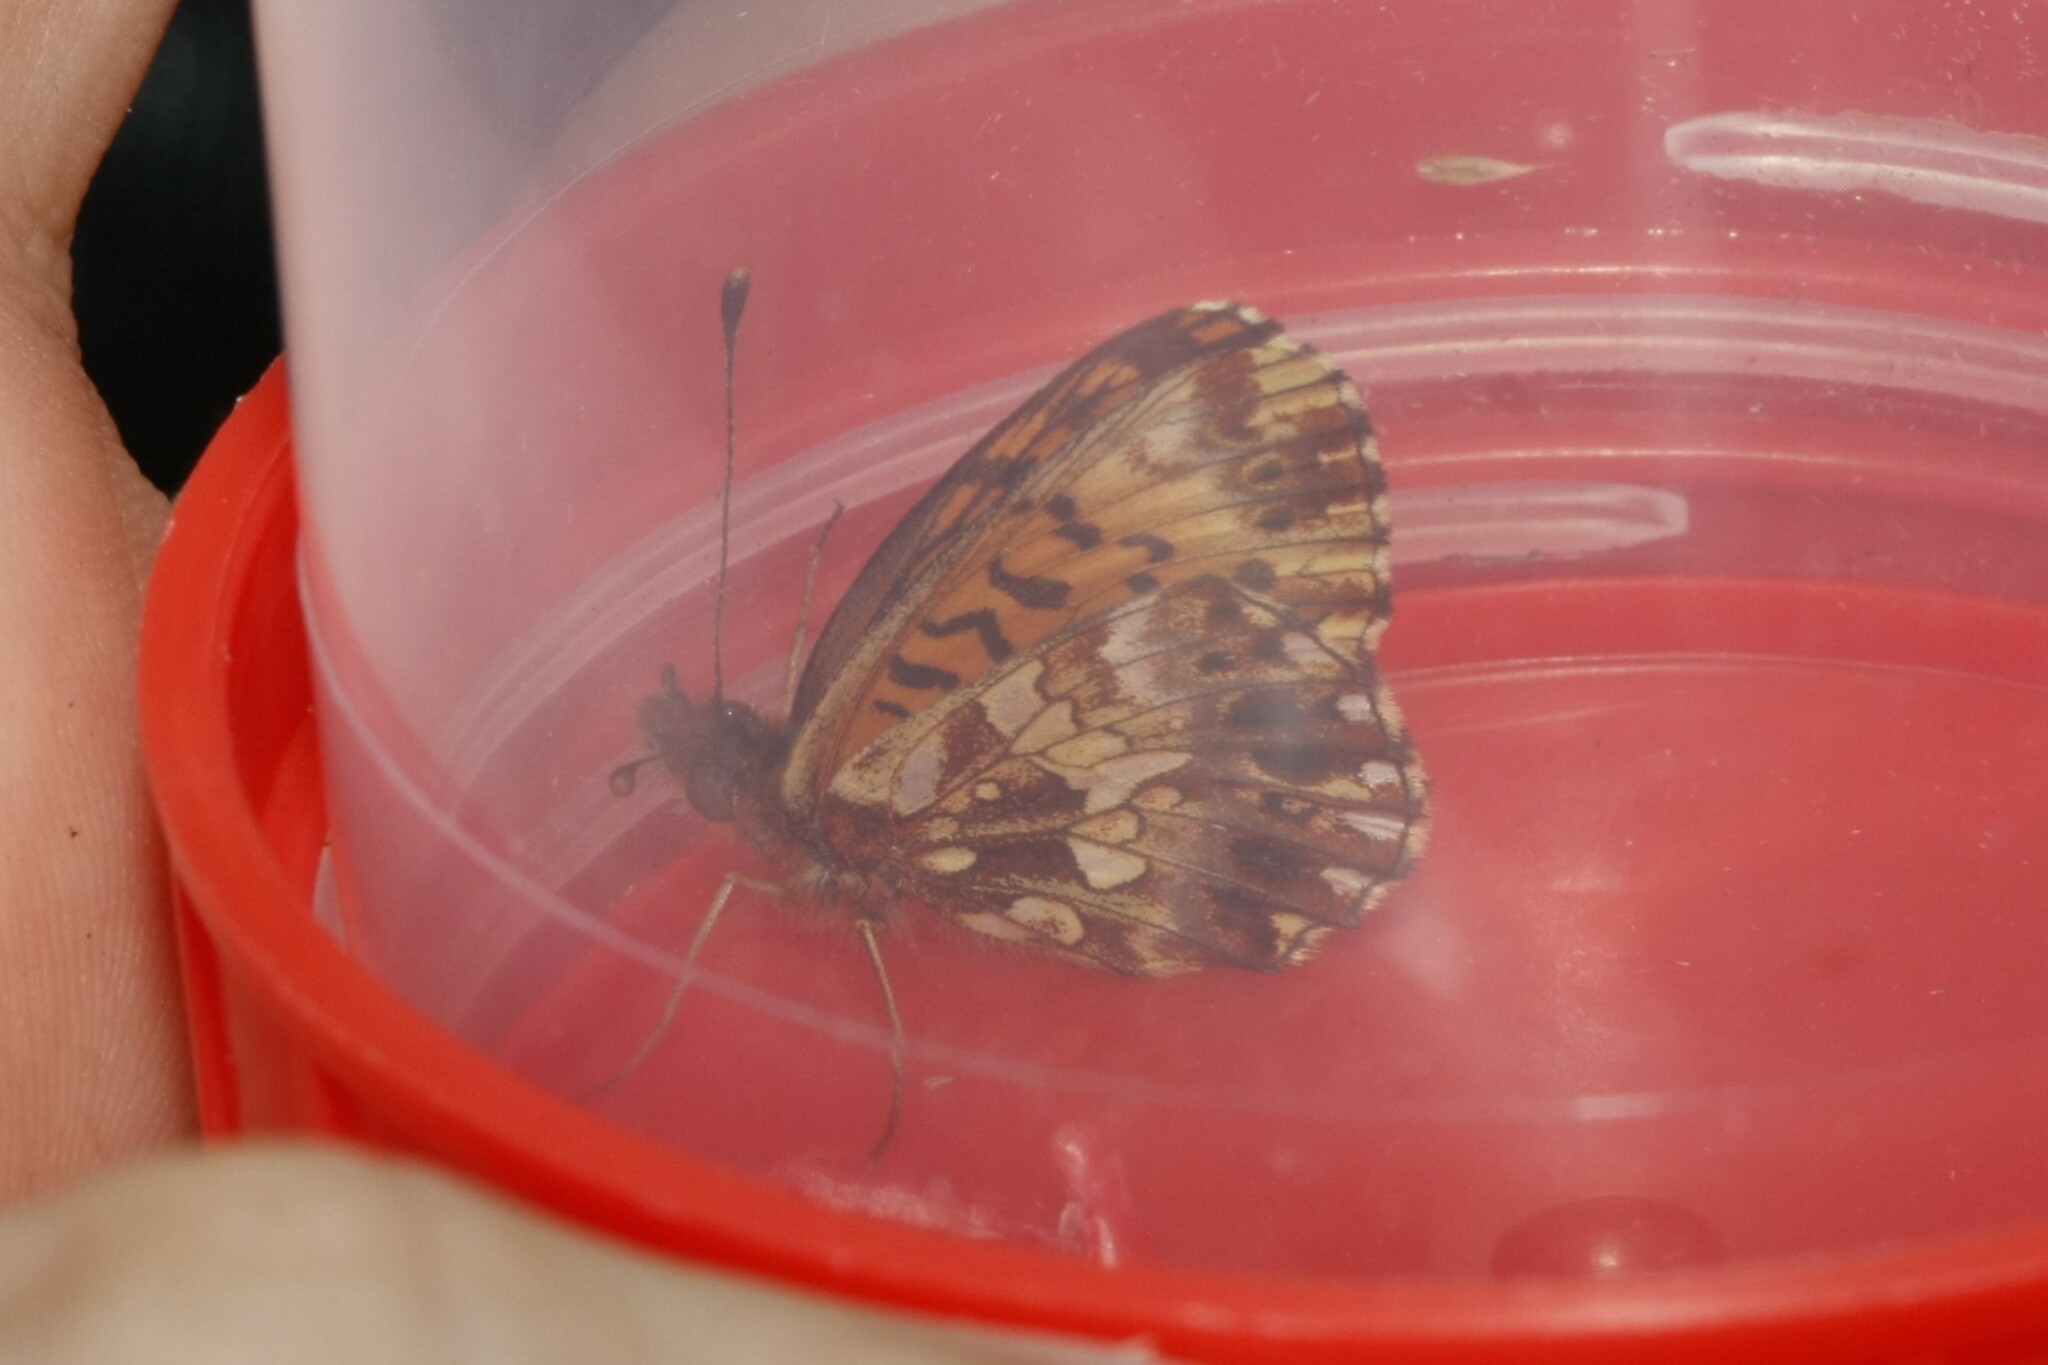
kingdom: Animalia
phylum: Arthropoda
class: Insecta
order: Lepidoptera
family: Nymphalidae
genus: Boloria
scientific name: Boloria dia
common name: Weaver's fritillary
